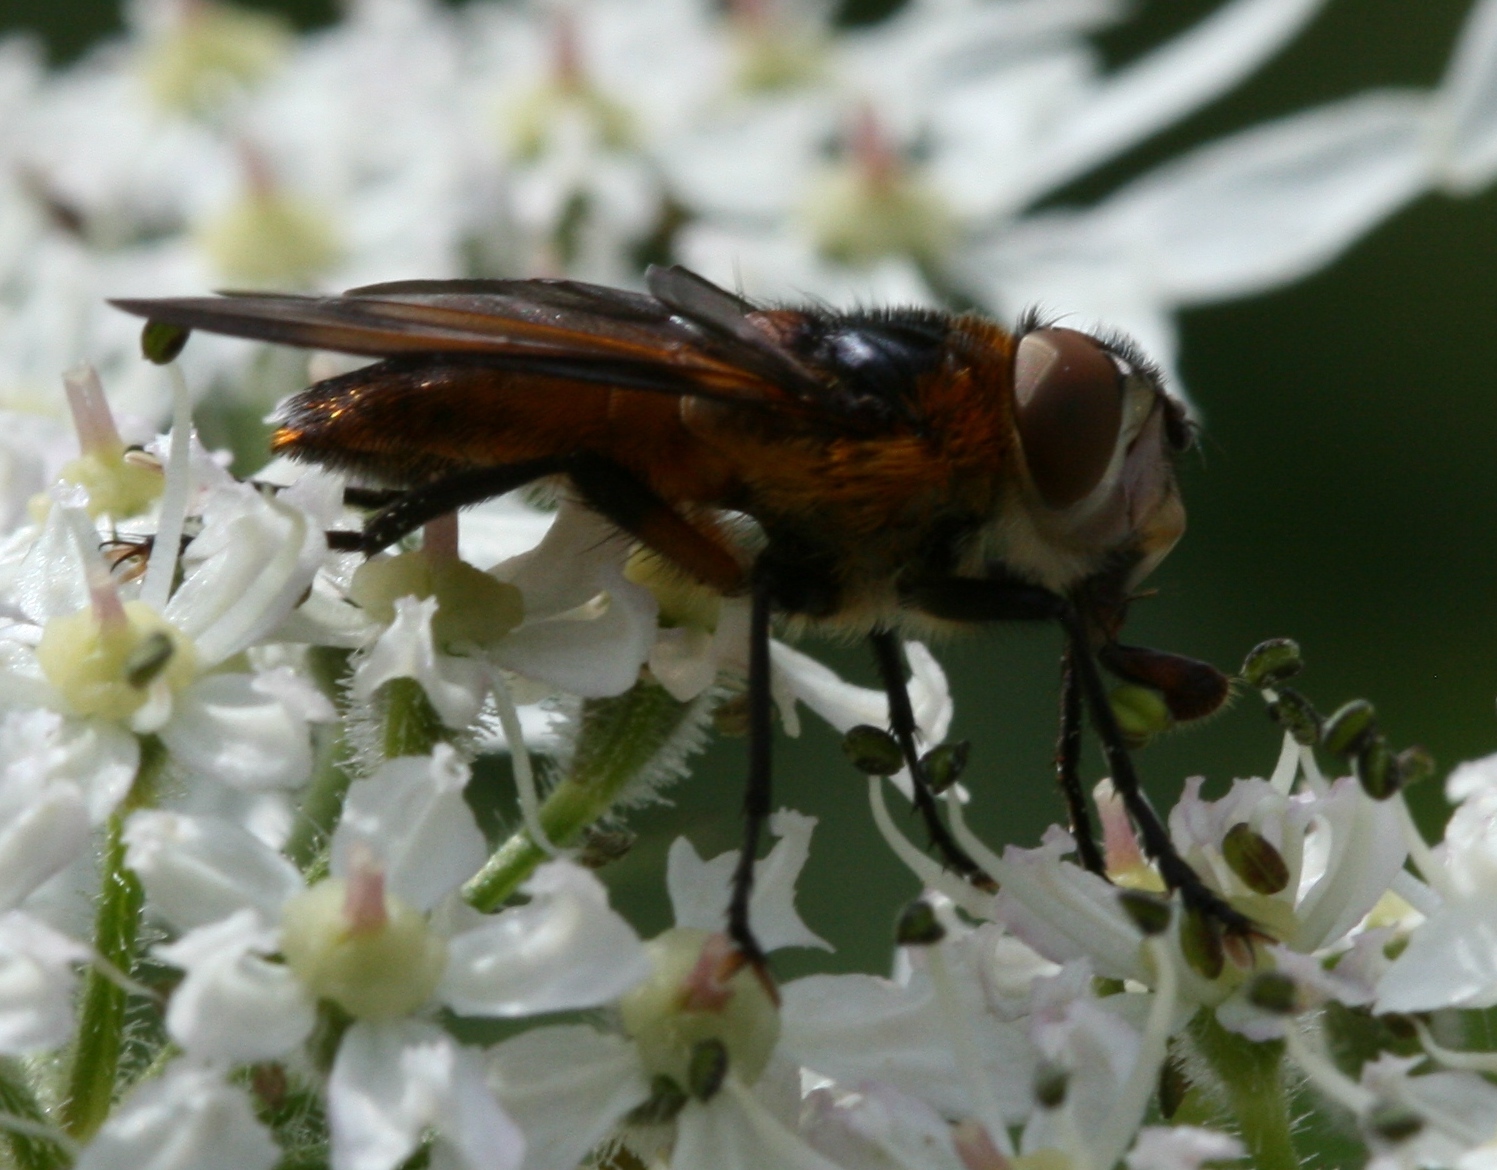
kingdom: Animalia
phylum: Arthropoda
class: Insecta
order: Diptera
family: Tachinidae
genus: Phasia
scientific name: Phasia hemiptera
